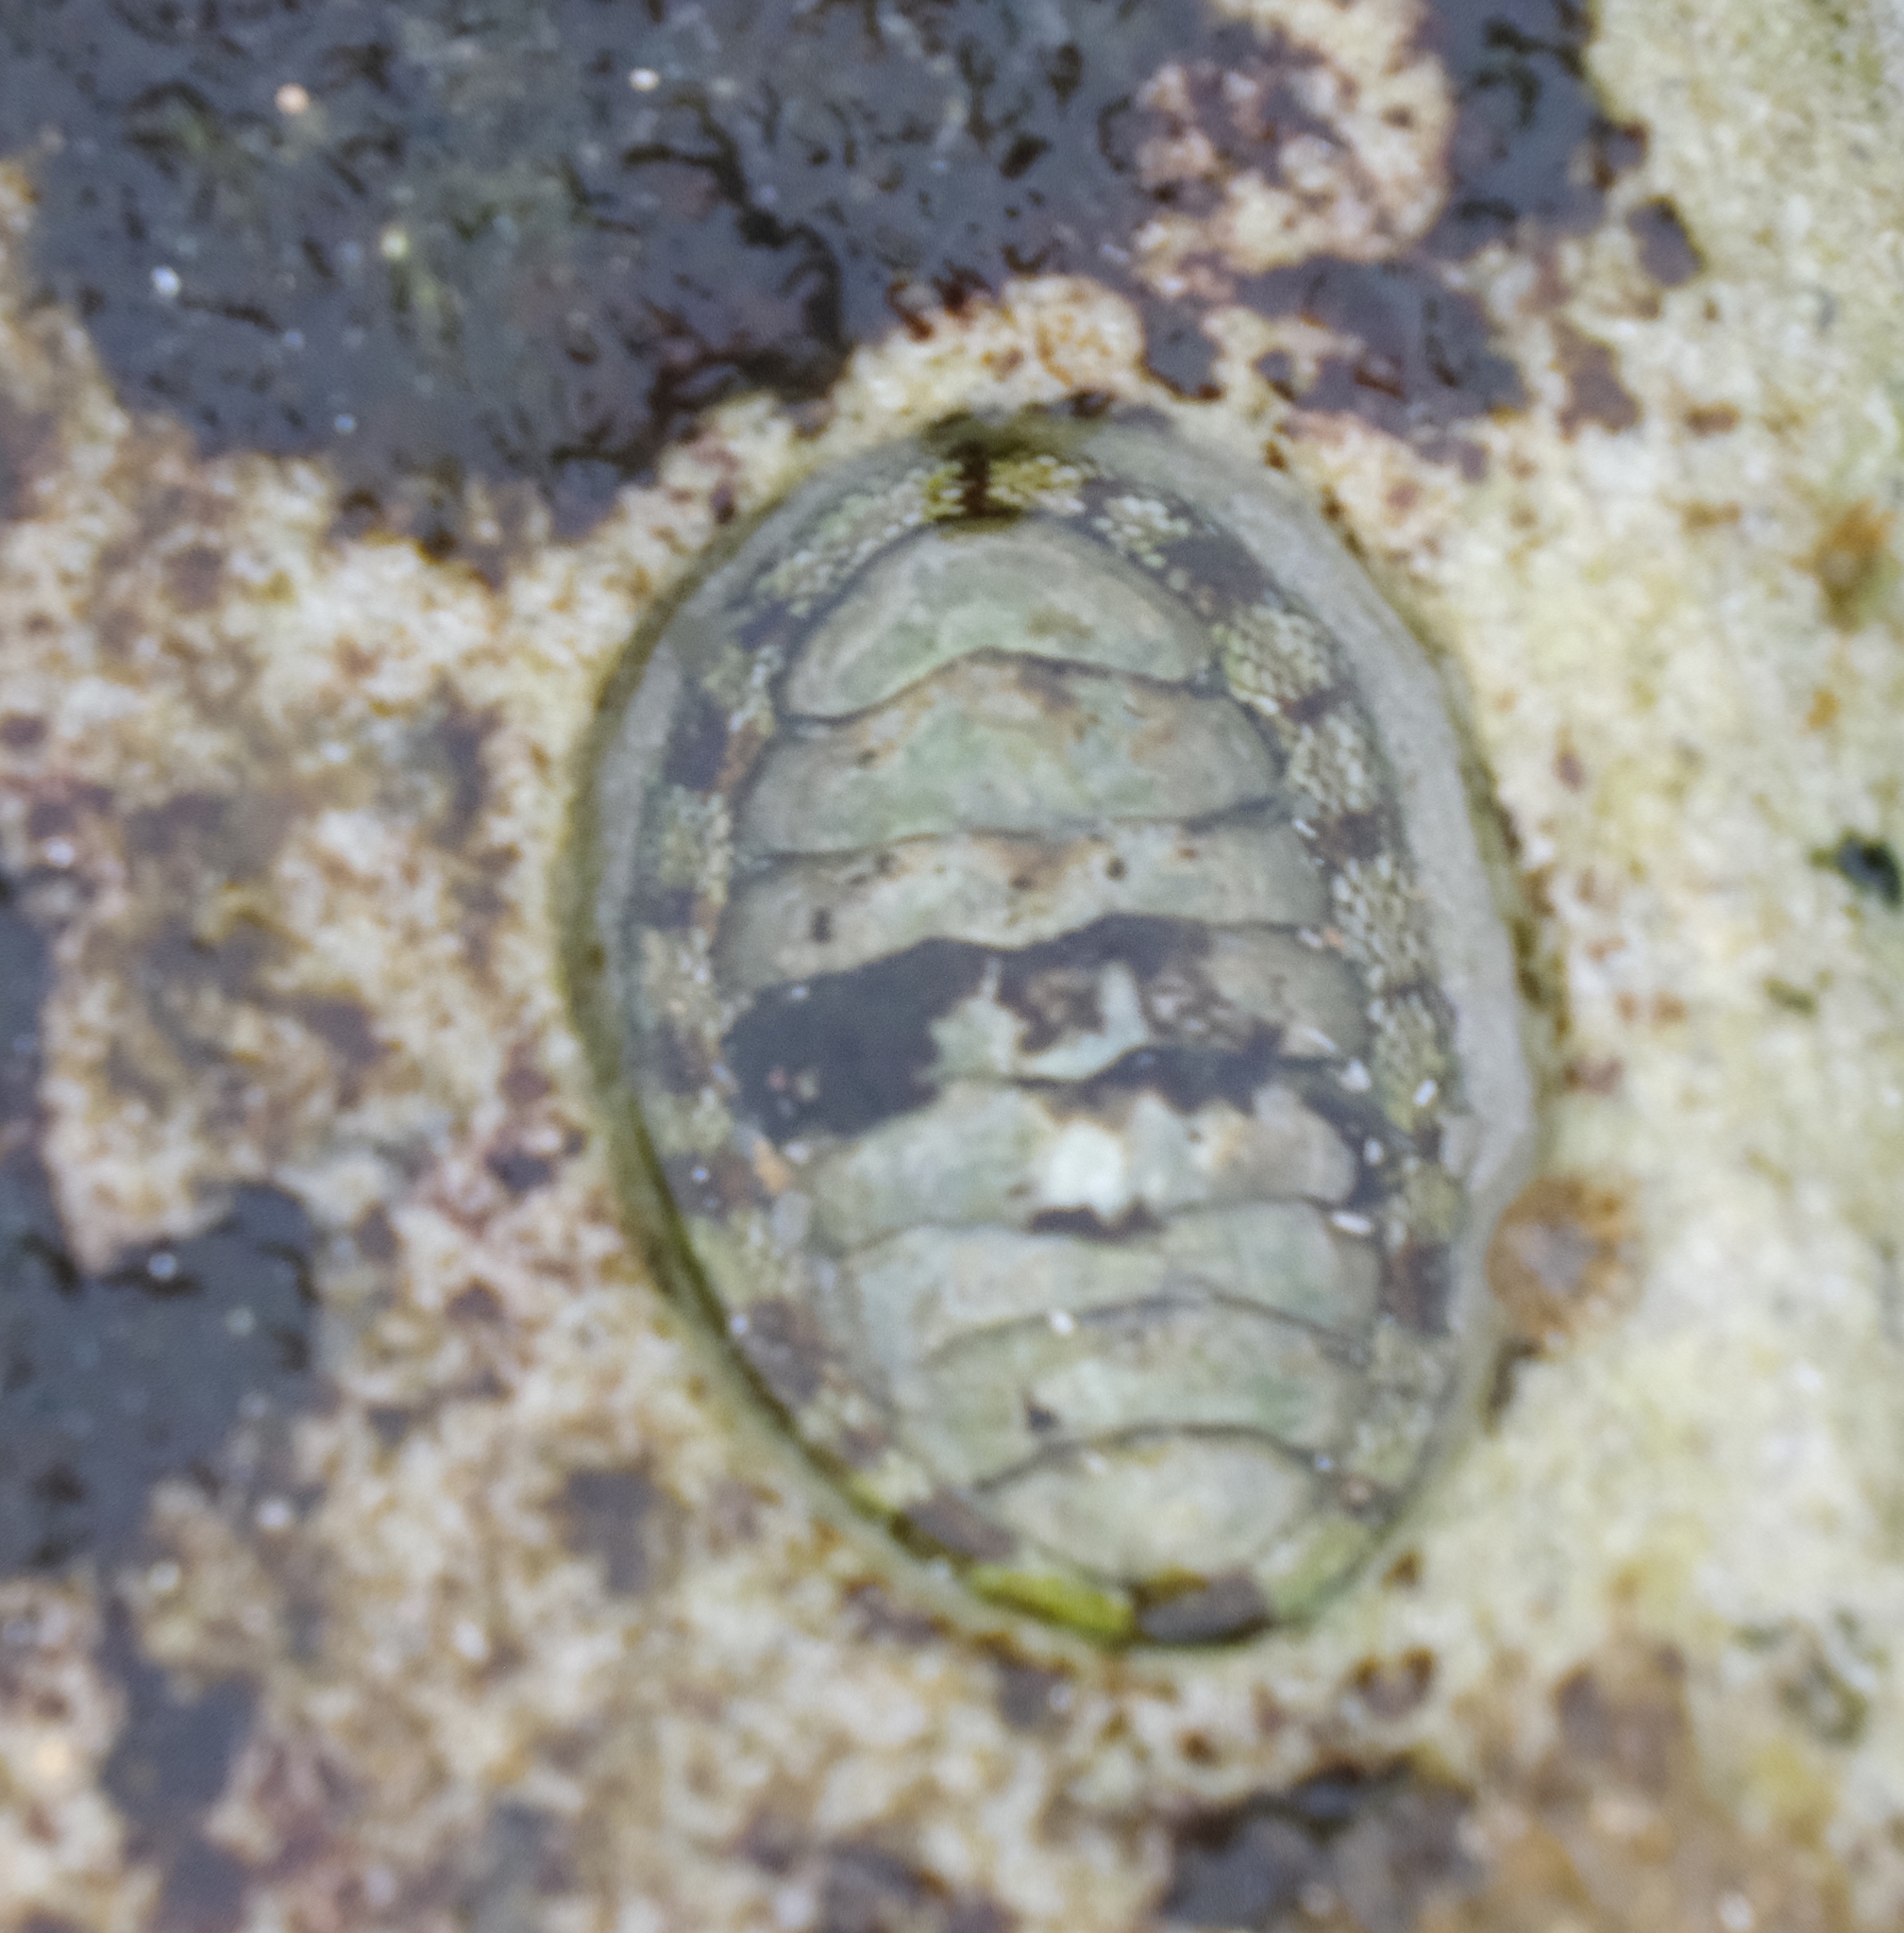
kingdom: Animalia
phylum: Mollusca
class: Polyplacophora
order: Chitonida
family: Chitonidae
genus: Sypharochiton
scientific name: Sypharochiton pelliserpentis
